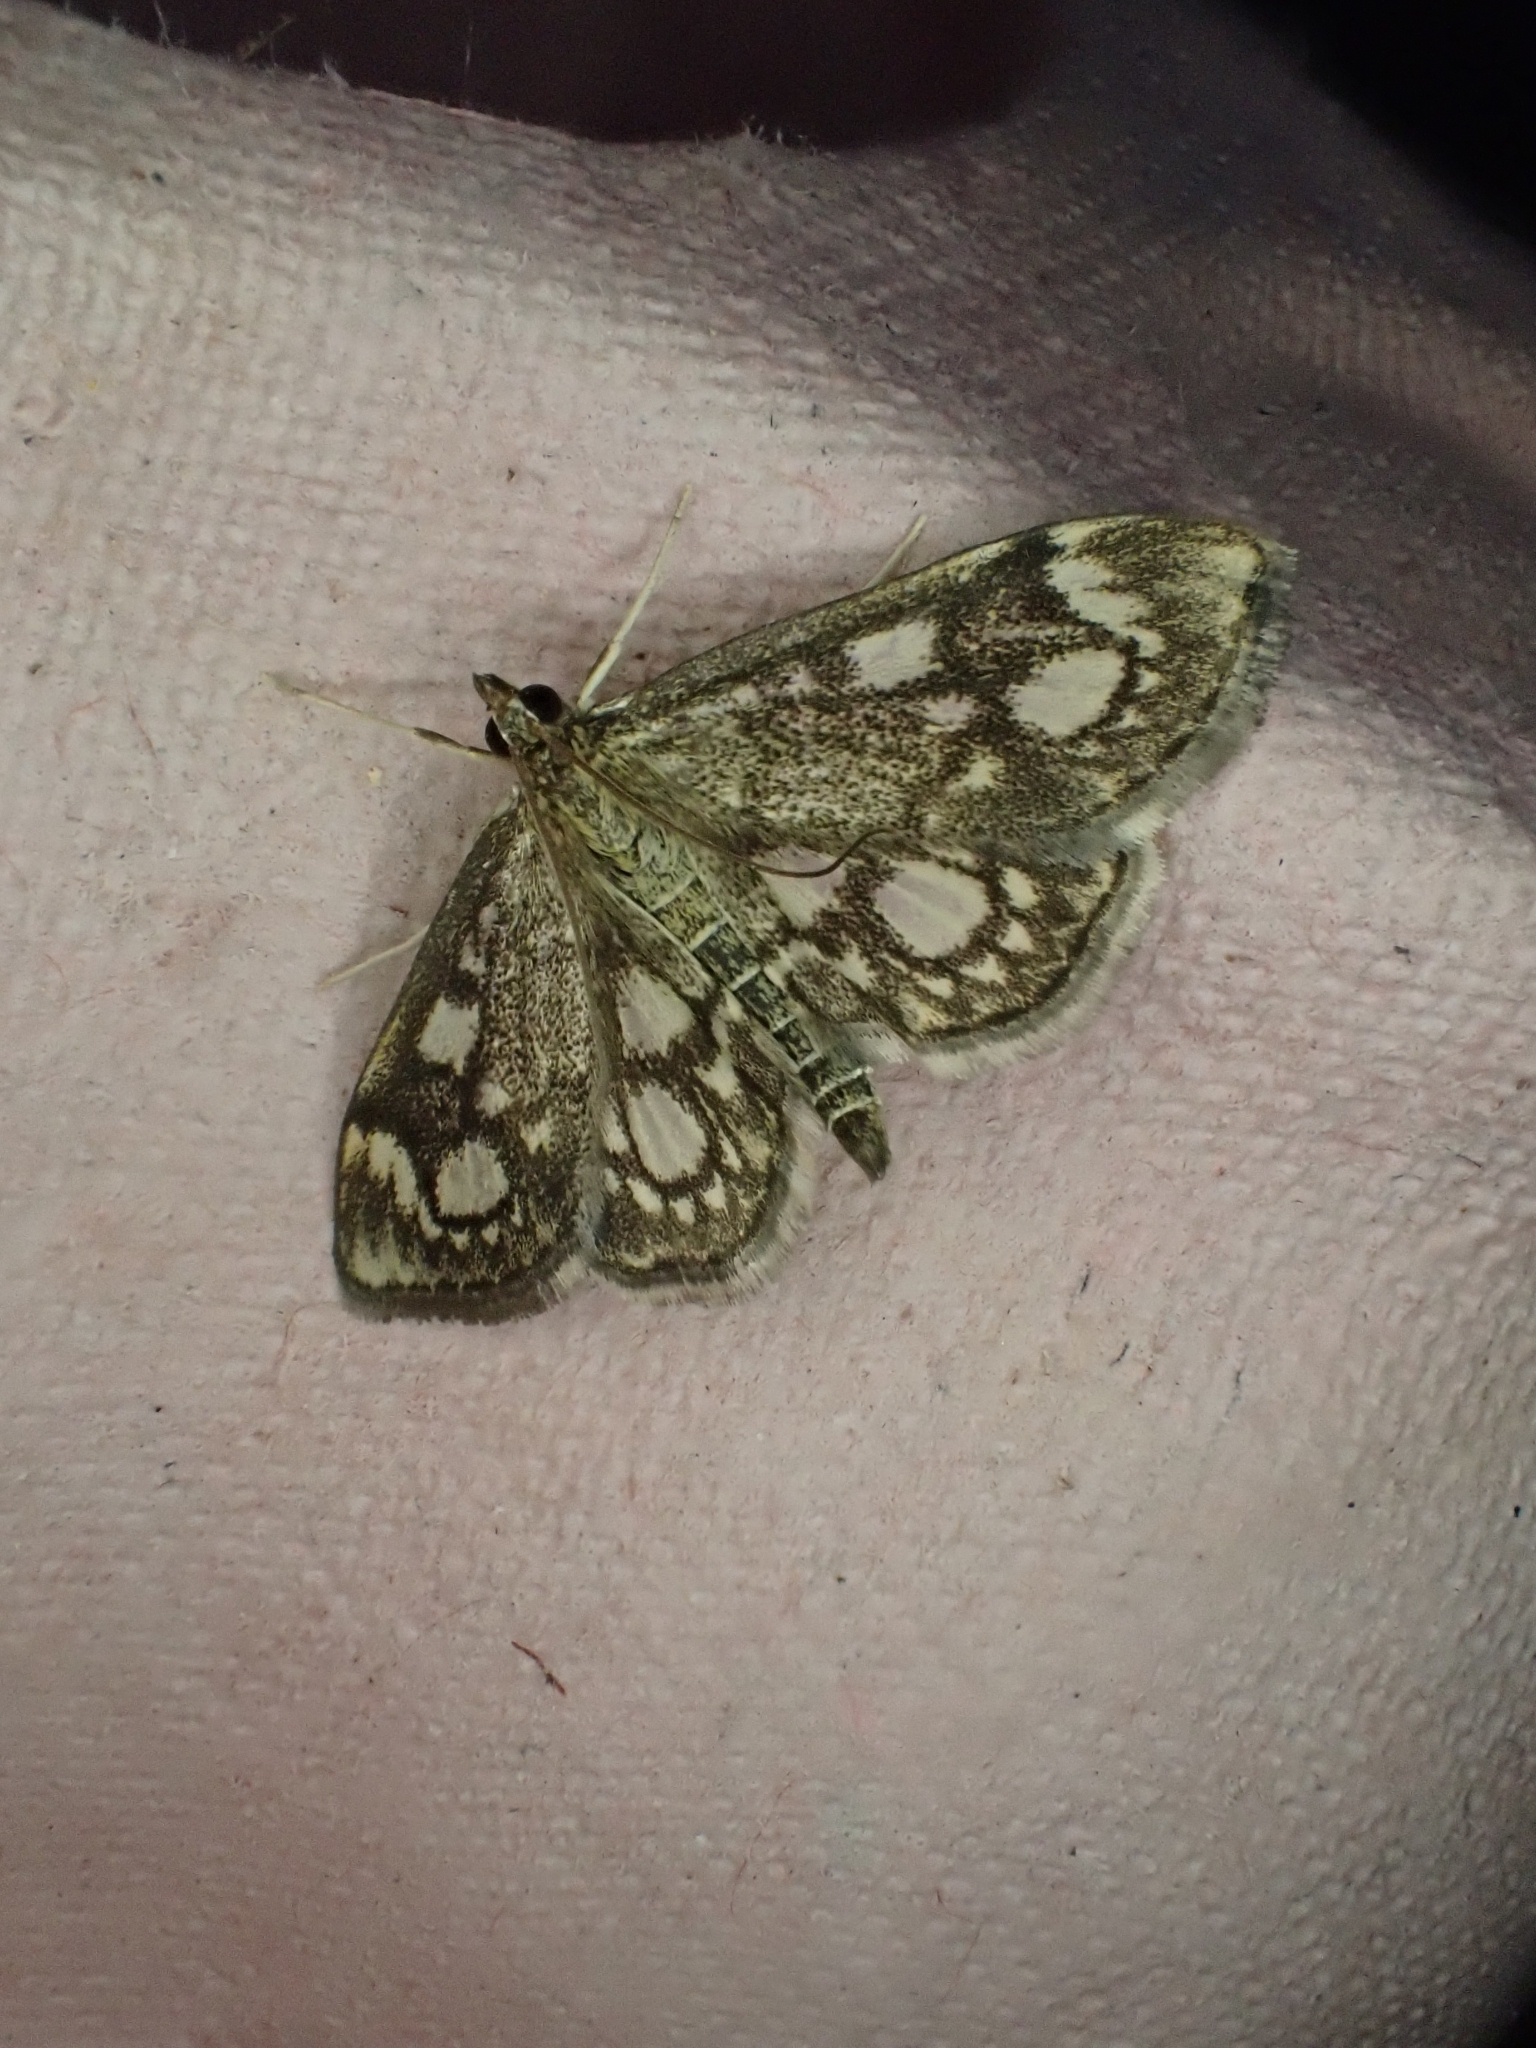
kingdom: Animalia
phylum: Arthropoda
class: Insecta
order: Lepidoptera
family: Crambidae
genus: Anania
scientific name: Anania coronata
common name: Elder pearl
